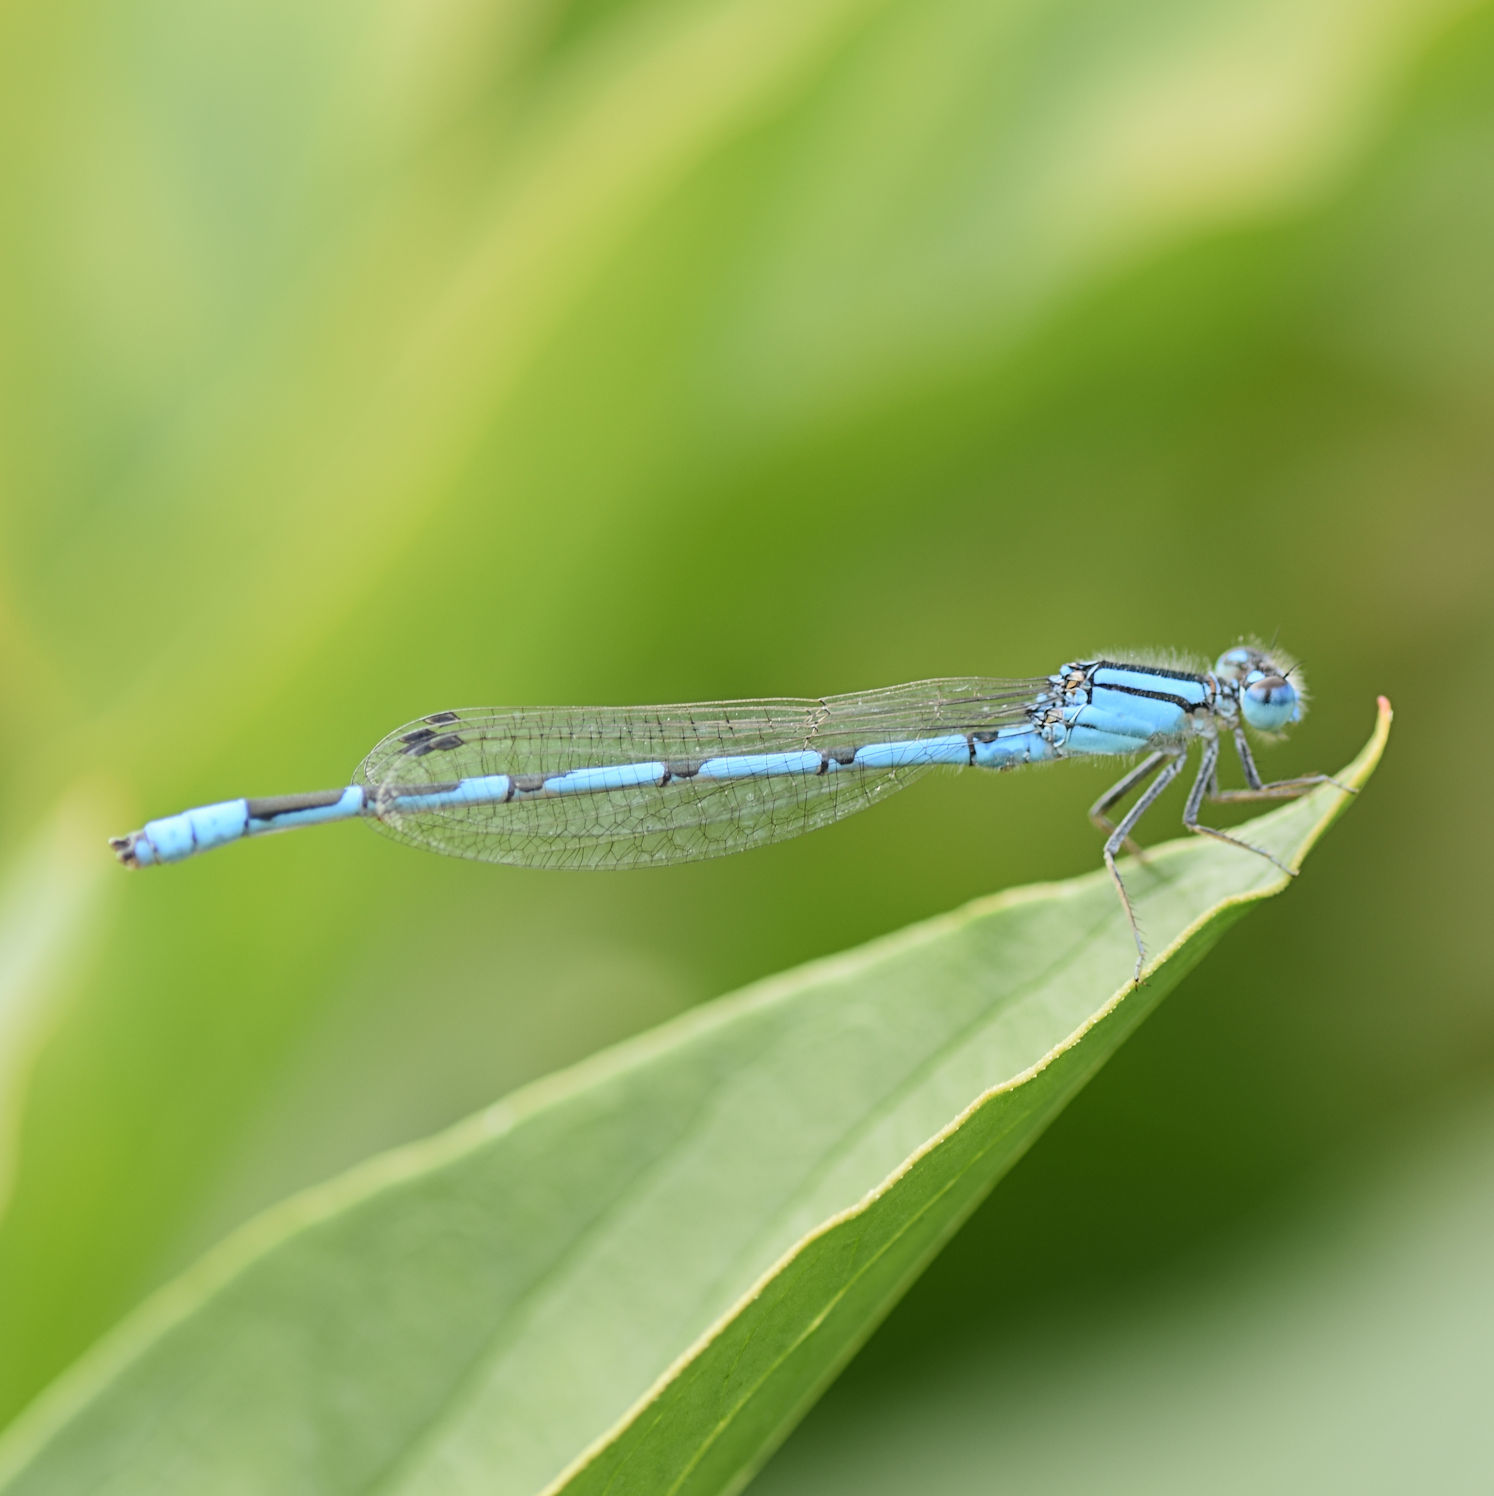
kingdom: Animalia
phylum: Arthropoda
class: Insecta
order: Odonata
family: Coenagrionidae
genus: Enallagma
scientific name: Enallagma civile
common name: Damselfly
